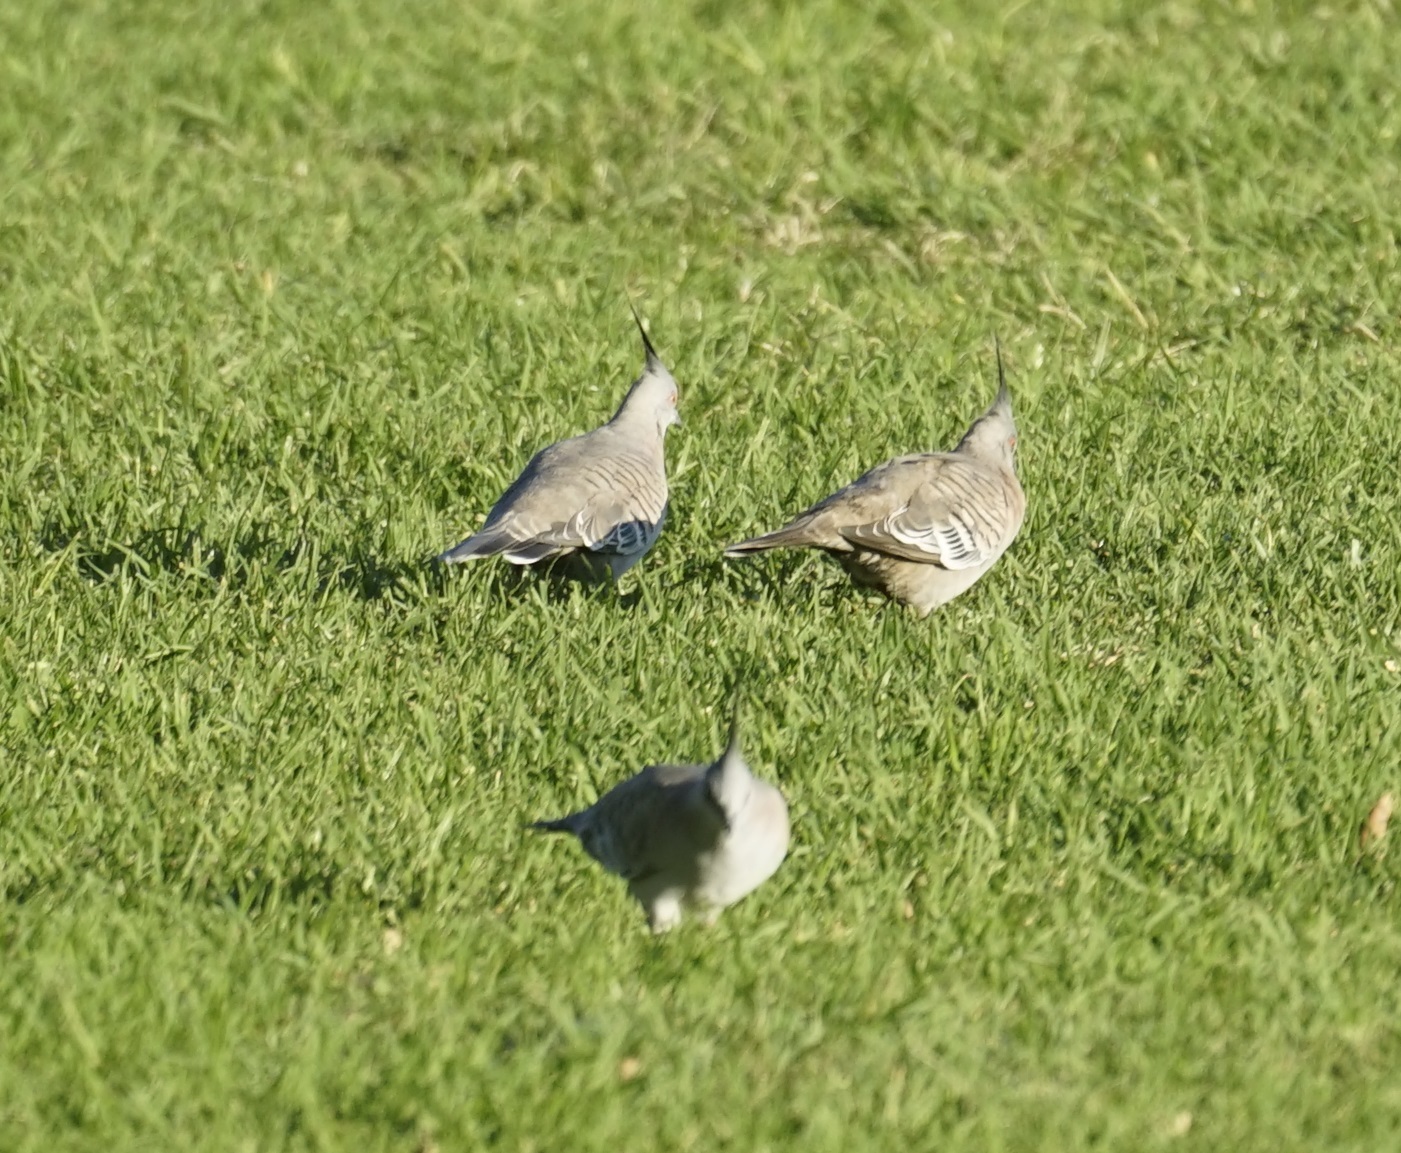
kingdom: Animalia
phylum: Chordata
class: Aves
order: Columbiformes
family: Columbidae
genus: Ocyphaps
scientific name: Ocyphaps lophotes
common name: Crested pigeon
